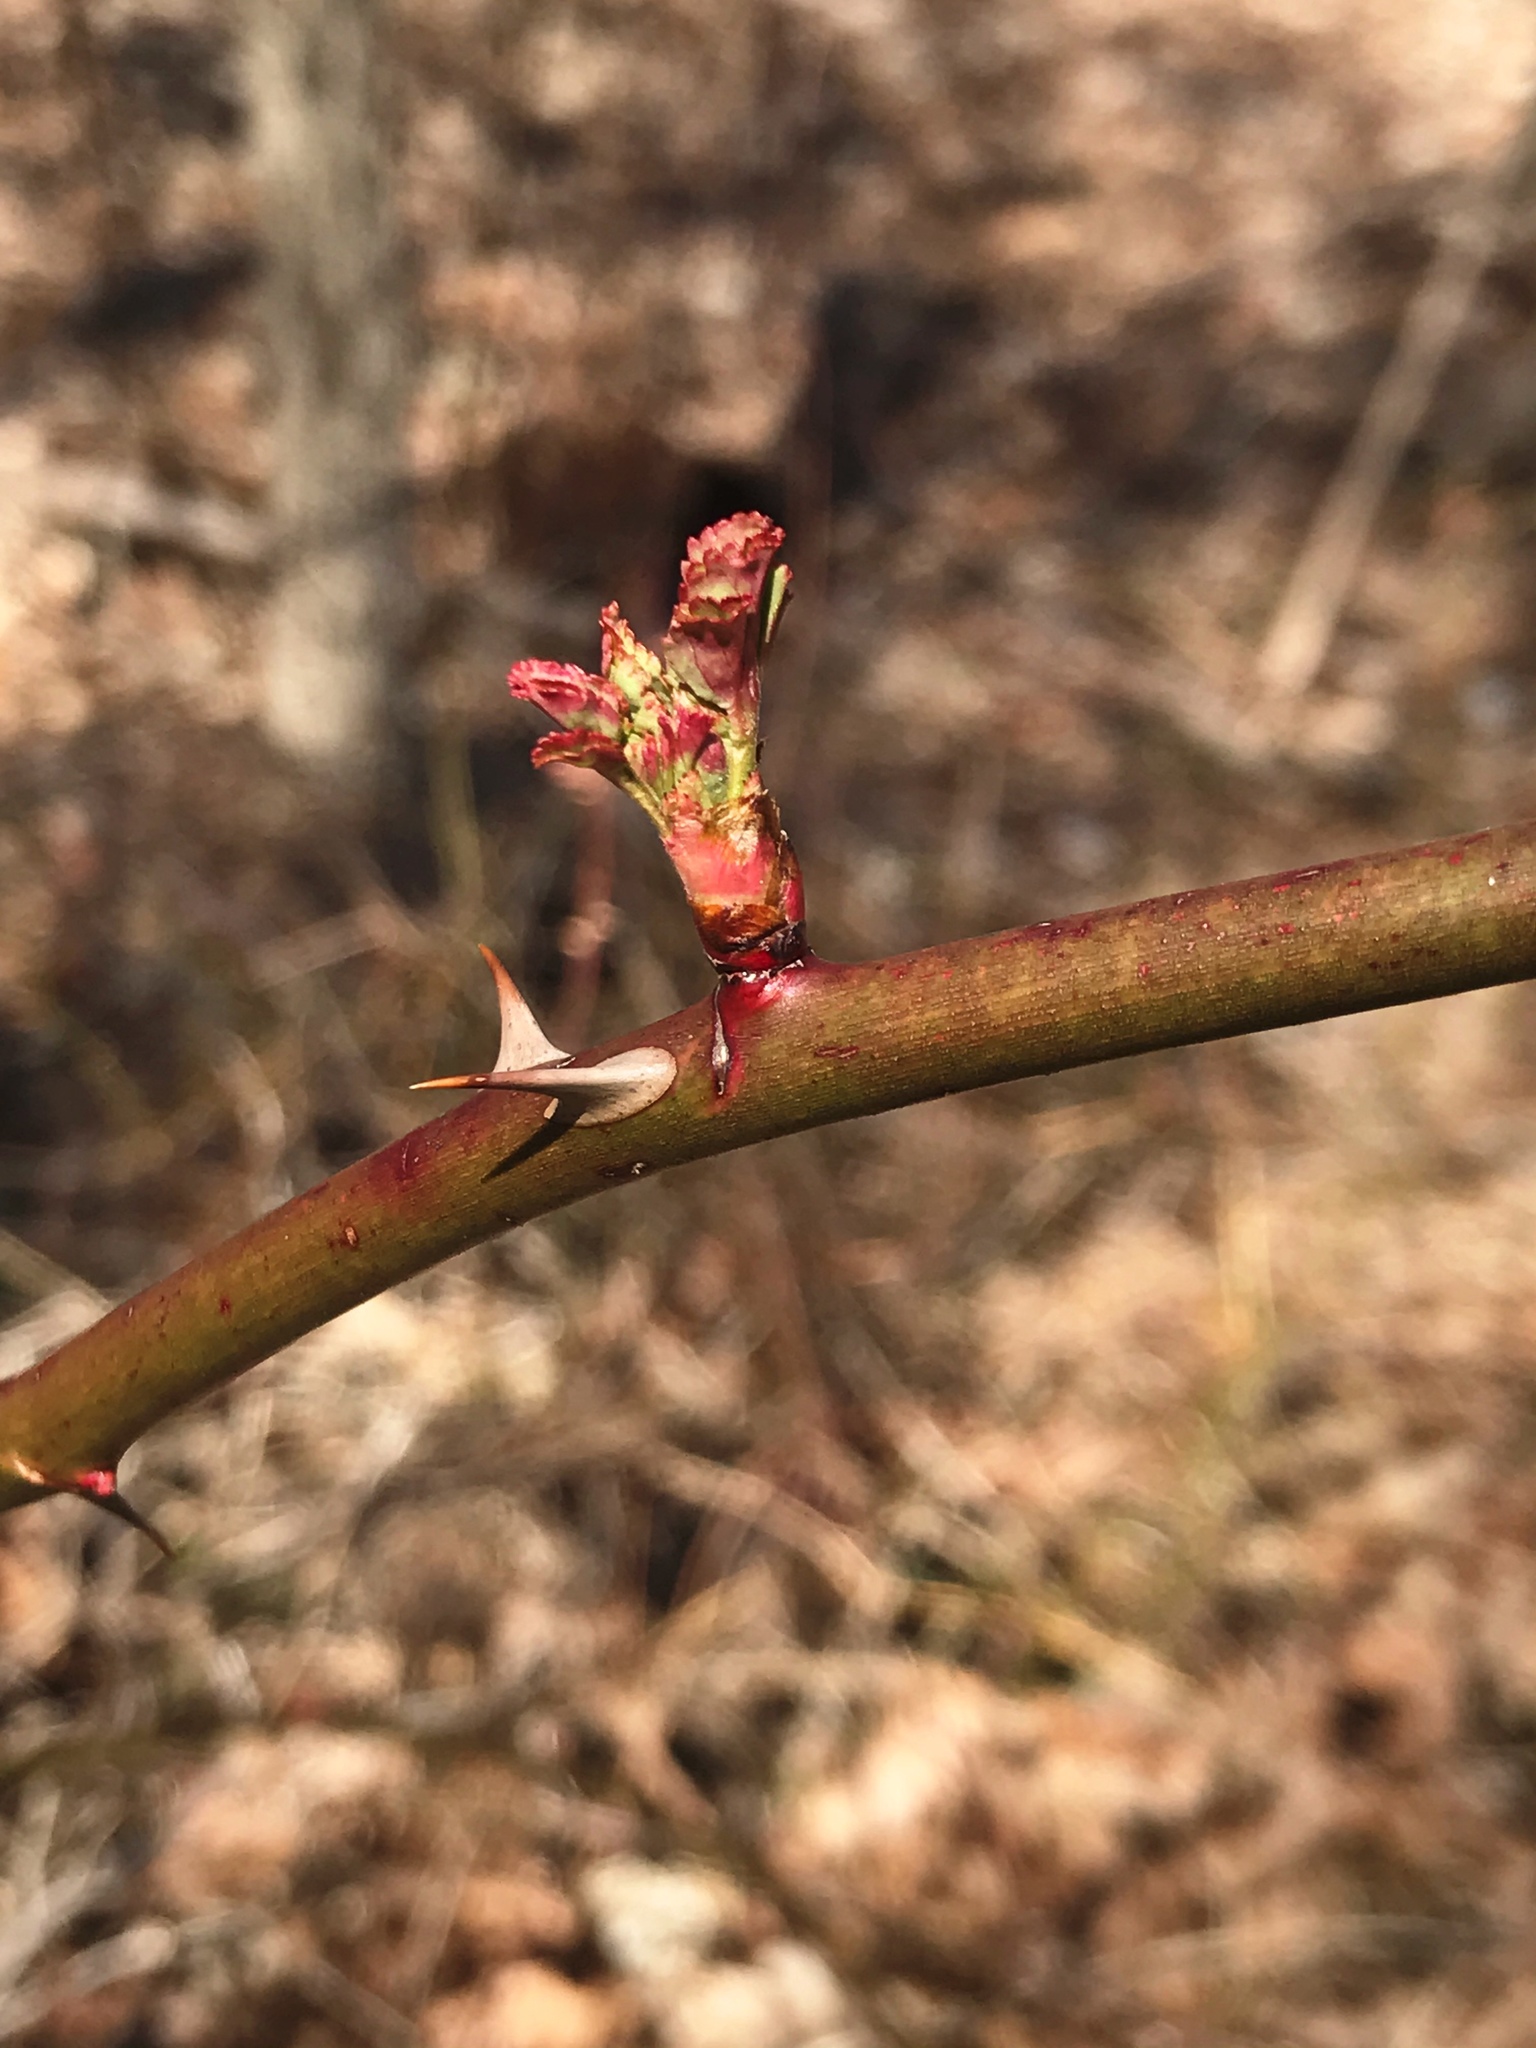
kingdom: Plantae
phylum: Tracheophyta
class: Magnoliopsida
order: Rosales
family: Rosaceae
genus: Rosa
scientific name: Rosa multiflora
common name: Multiflora rose
